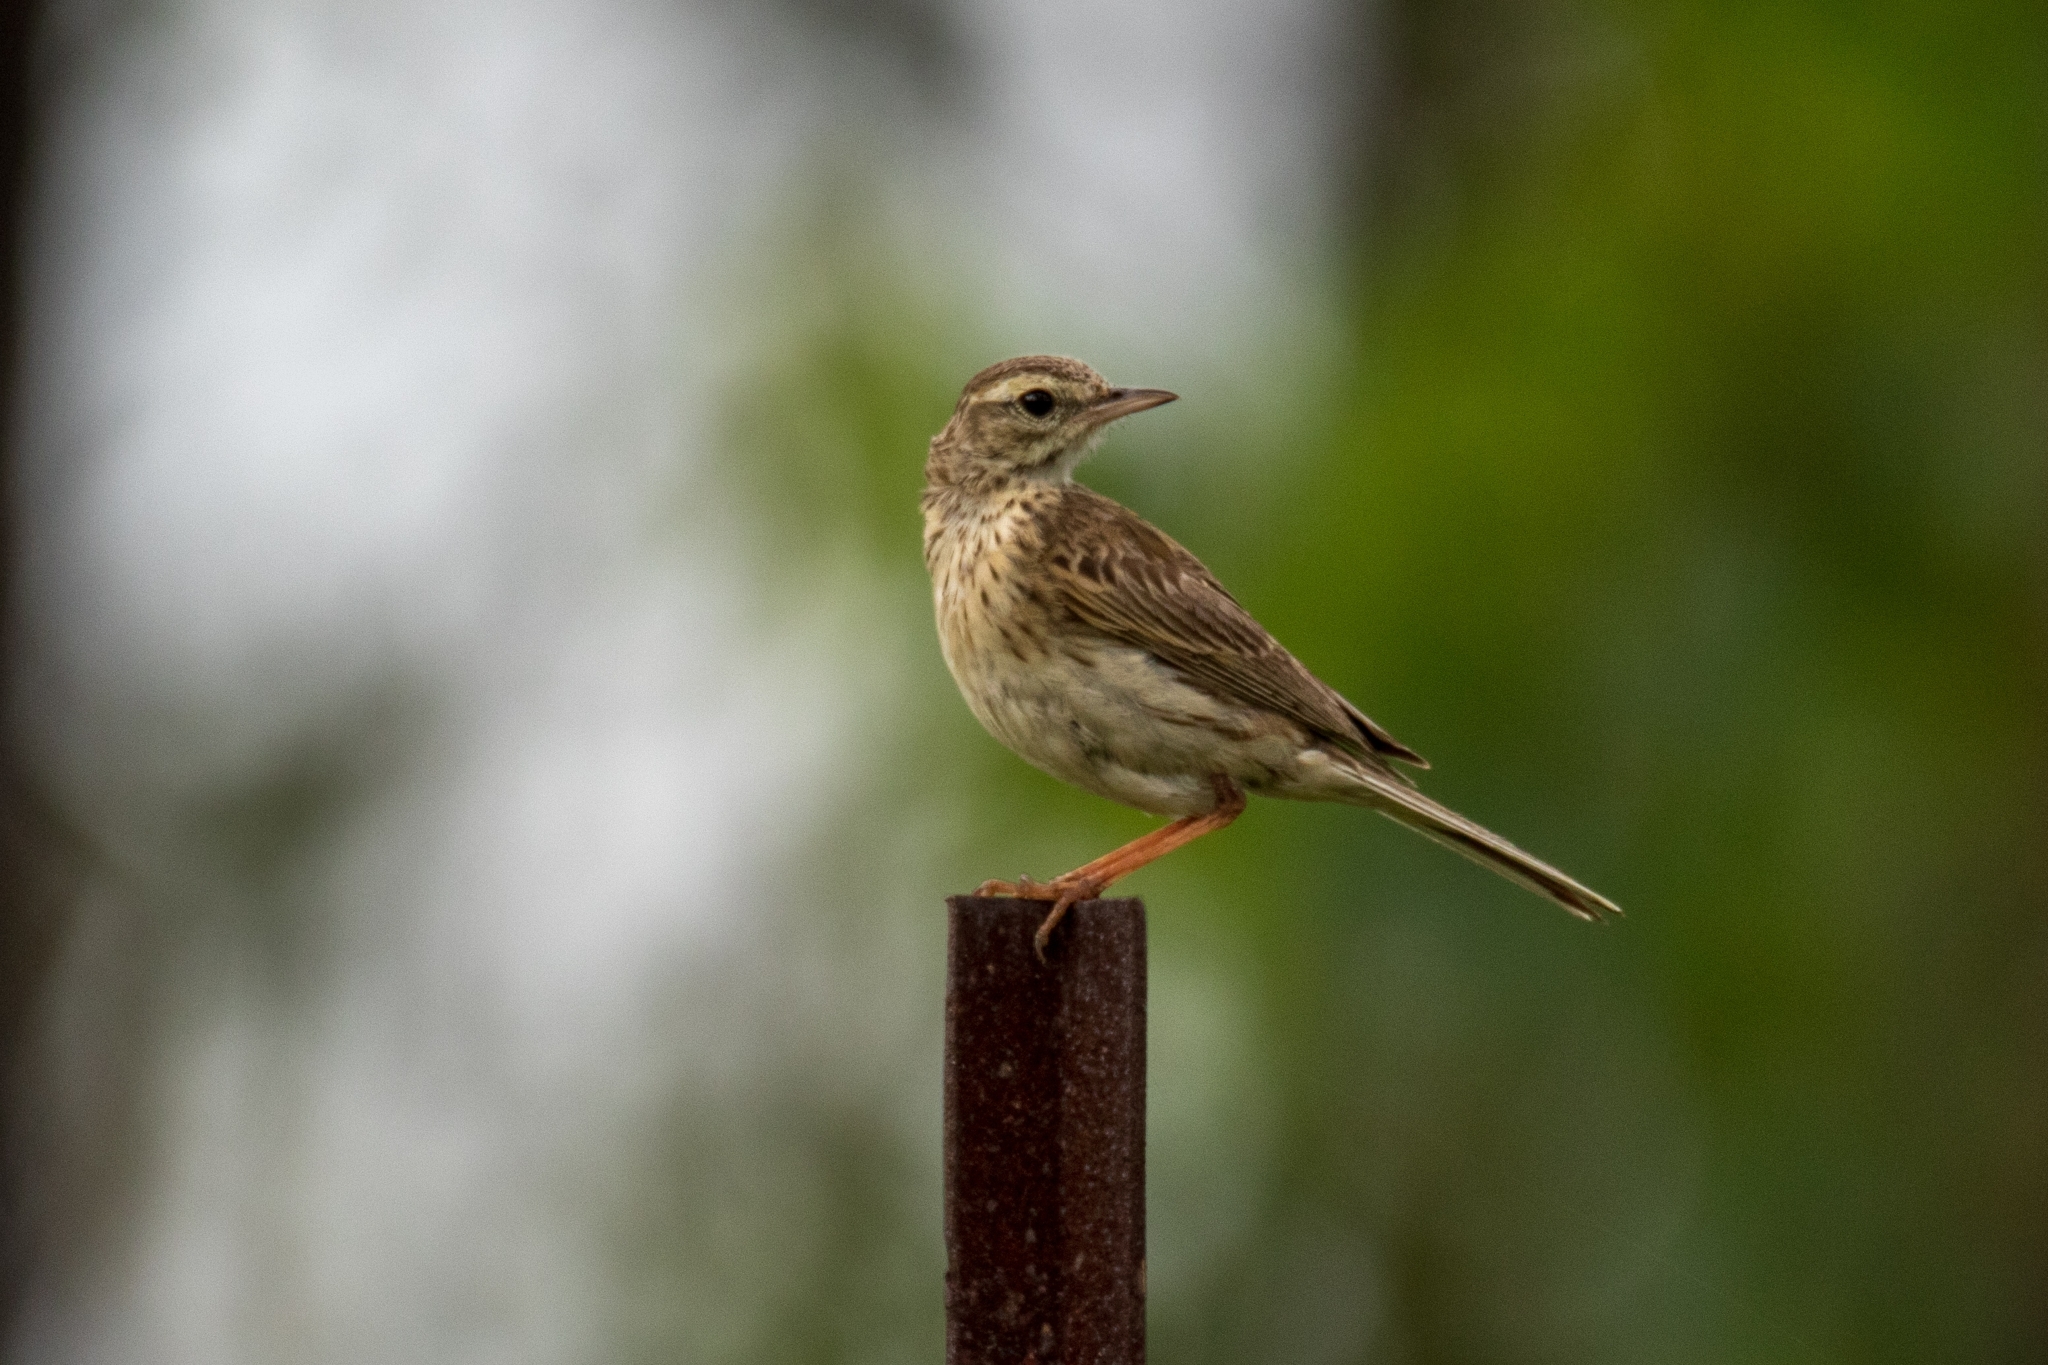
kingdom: Animalia
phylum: Chordata
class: Aves
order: Passeriformes
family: Motacillidae
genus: Anthus
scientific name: Anthus australis
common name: Australian pipit
